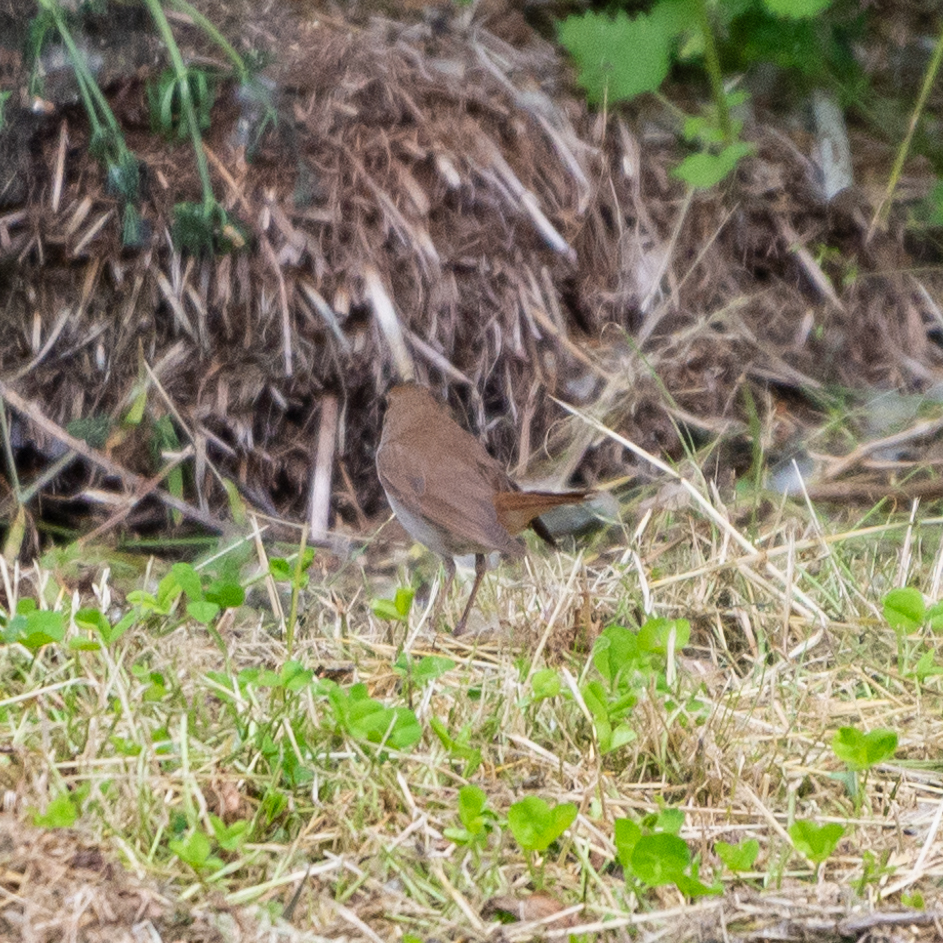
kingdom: Animalia
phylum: Chordata
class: Aves
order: Passeriformes
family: Muscicapidae
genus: Luscinia
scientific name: Luscinia megarhynchos
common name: Common nightingale
